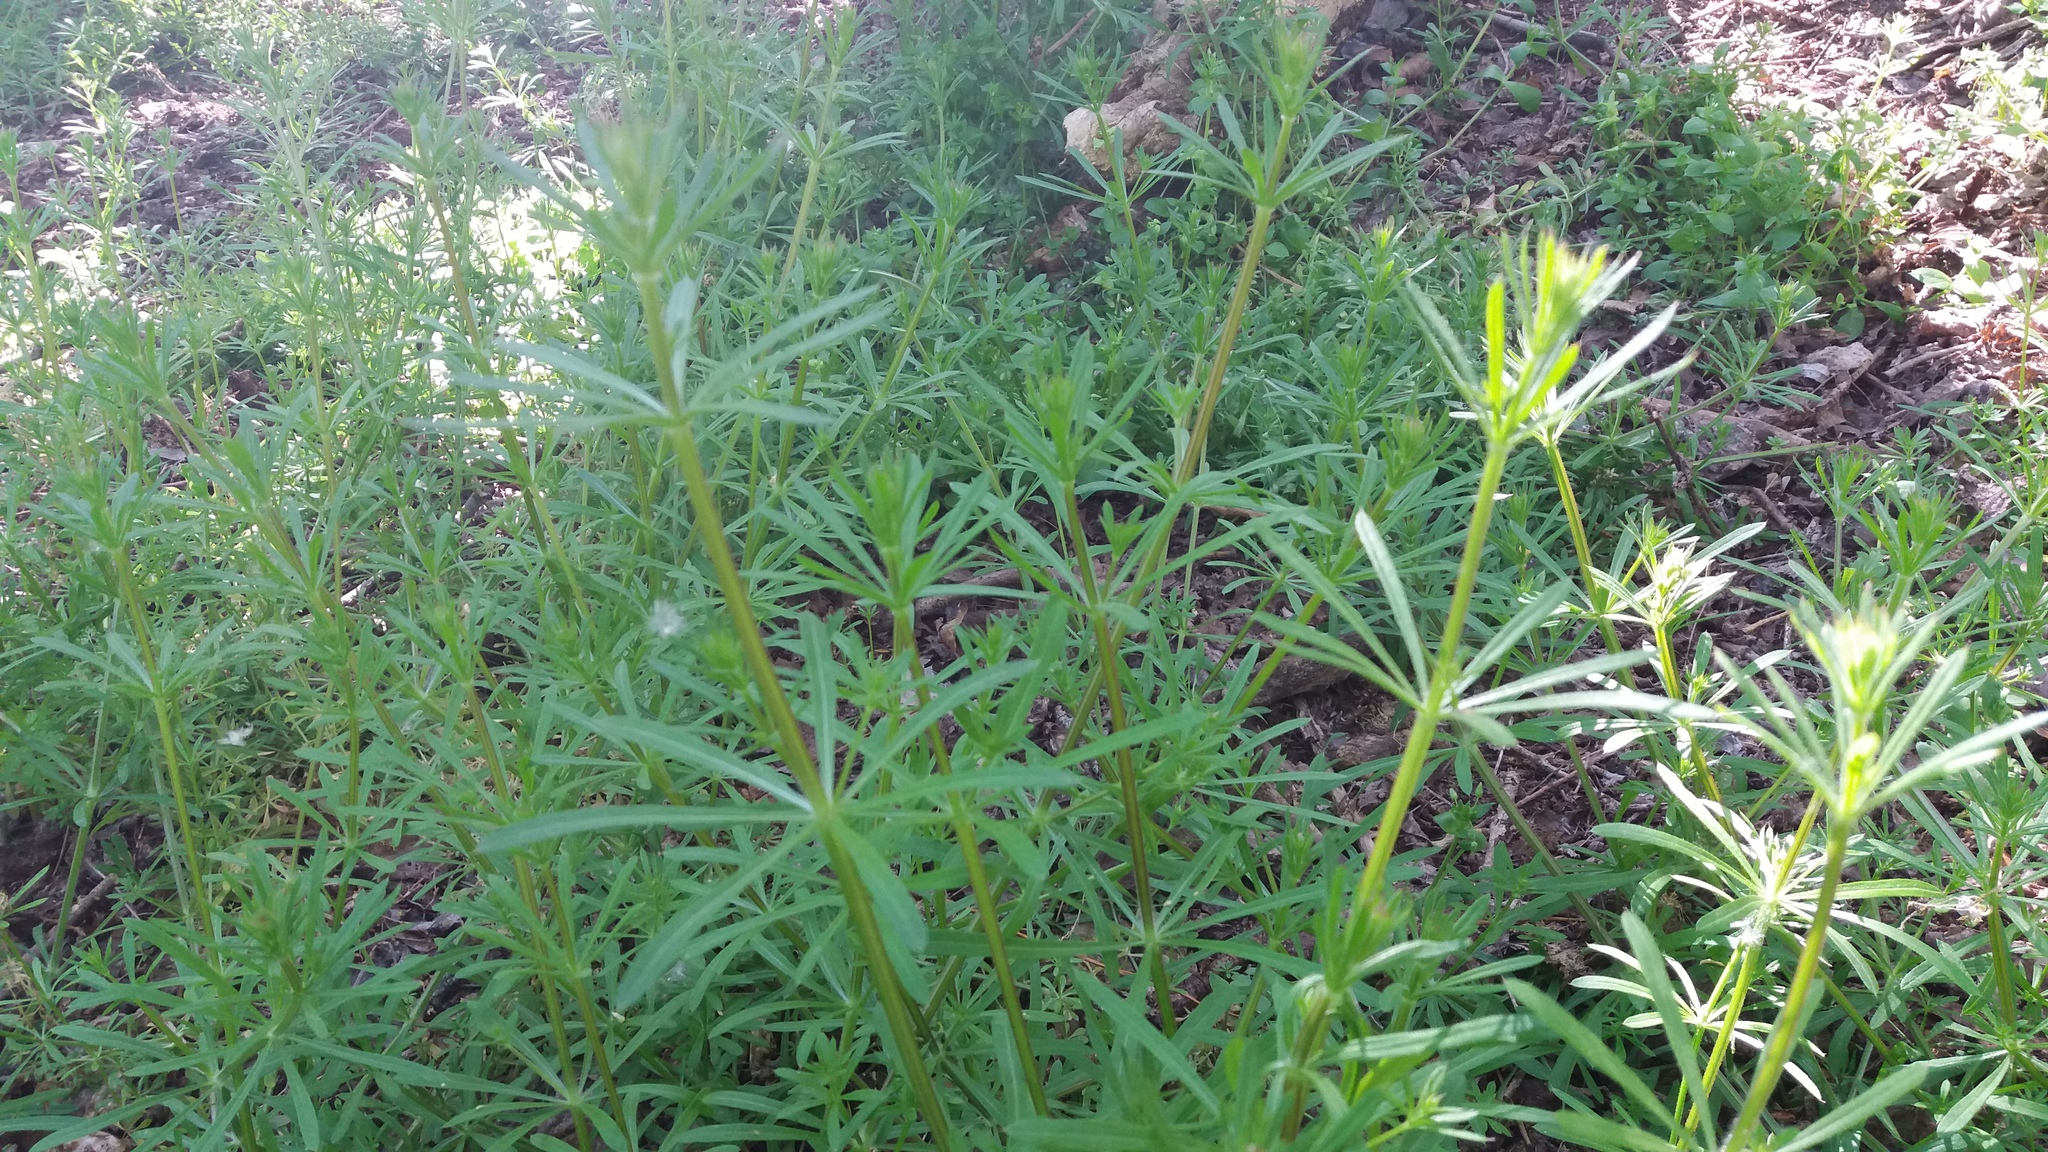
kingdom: Plantae
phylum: Tracheophyta
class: Magnoliopsida
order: Gentianales
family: Rubiaceae
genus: Galium
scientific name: Galium aparine
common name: Cleavers
